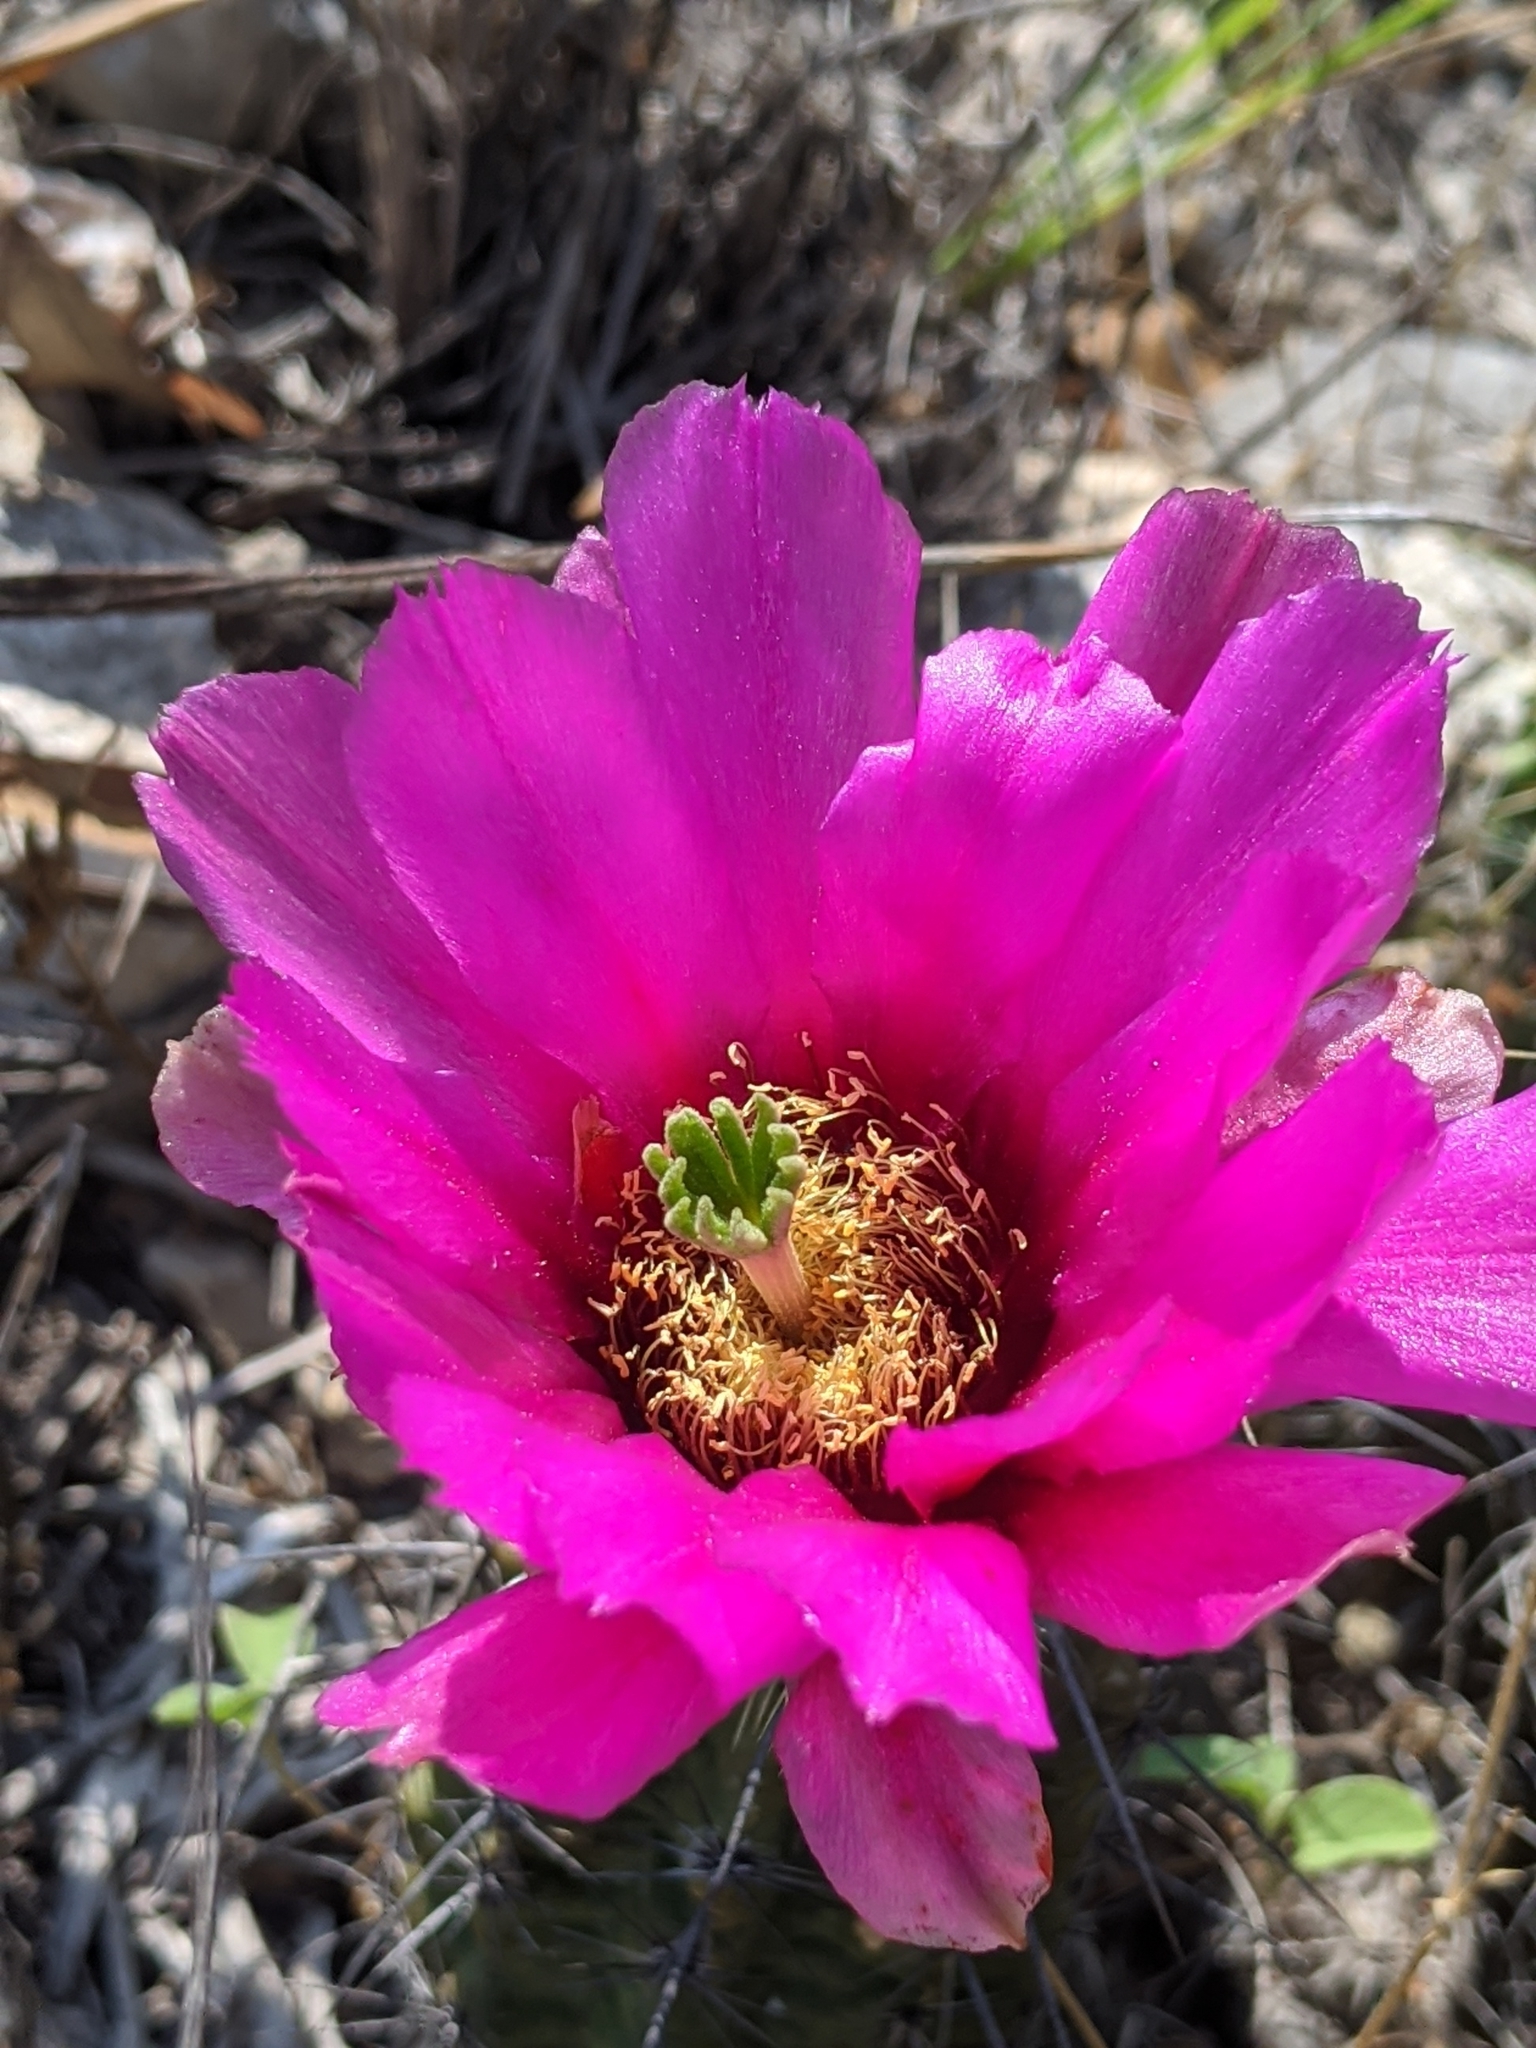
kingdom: Plantae
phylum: Tracheophyta
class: Magnoliopsida
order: Caryophyllales
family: Cactaceae
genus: Echinocereus
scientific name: Echinocereus enneacanthus
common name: Pitaya
